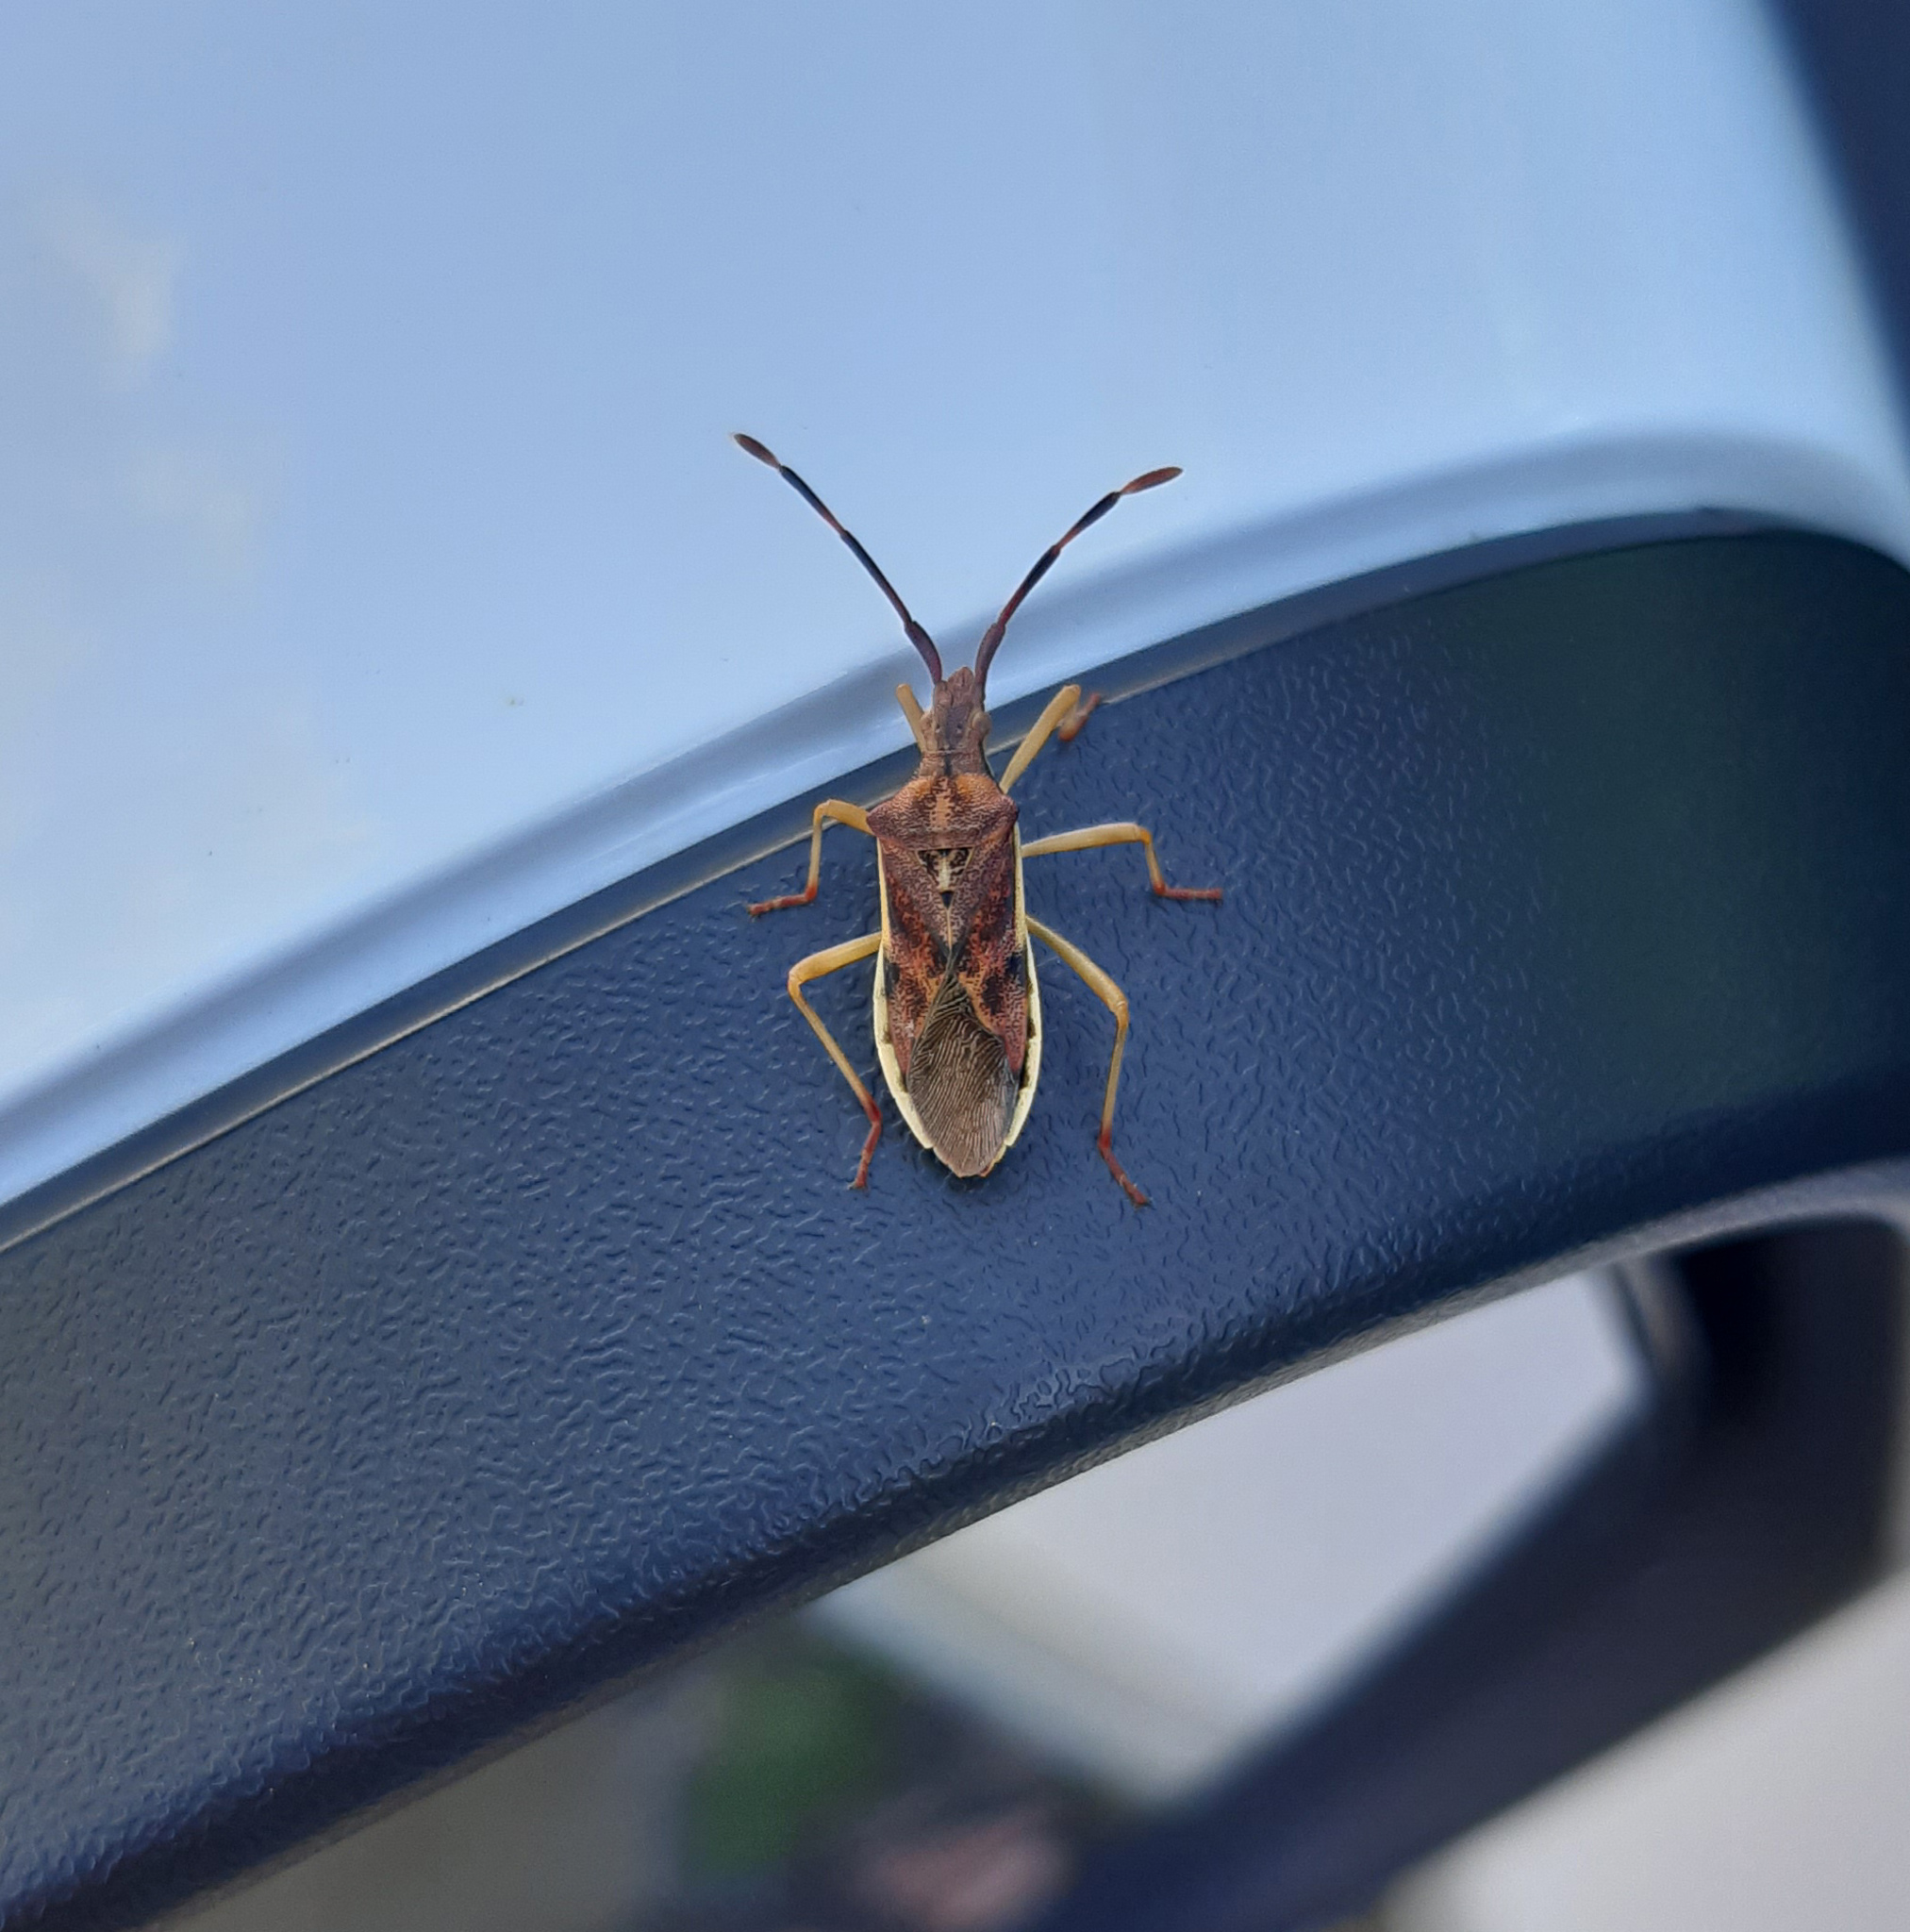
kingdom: Animalia
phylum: Arthropoda
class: Insecta
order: Hemiptera
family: Coreidae
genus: Gonocerus
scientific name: Gonocerus juniperi
